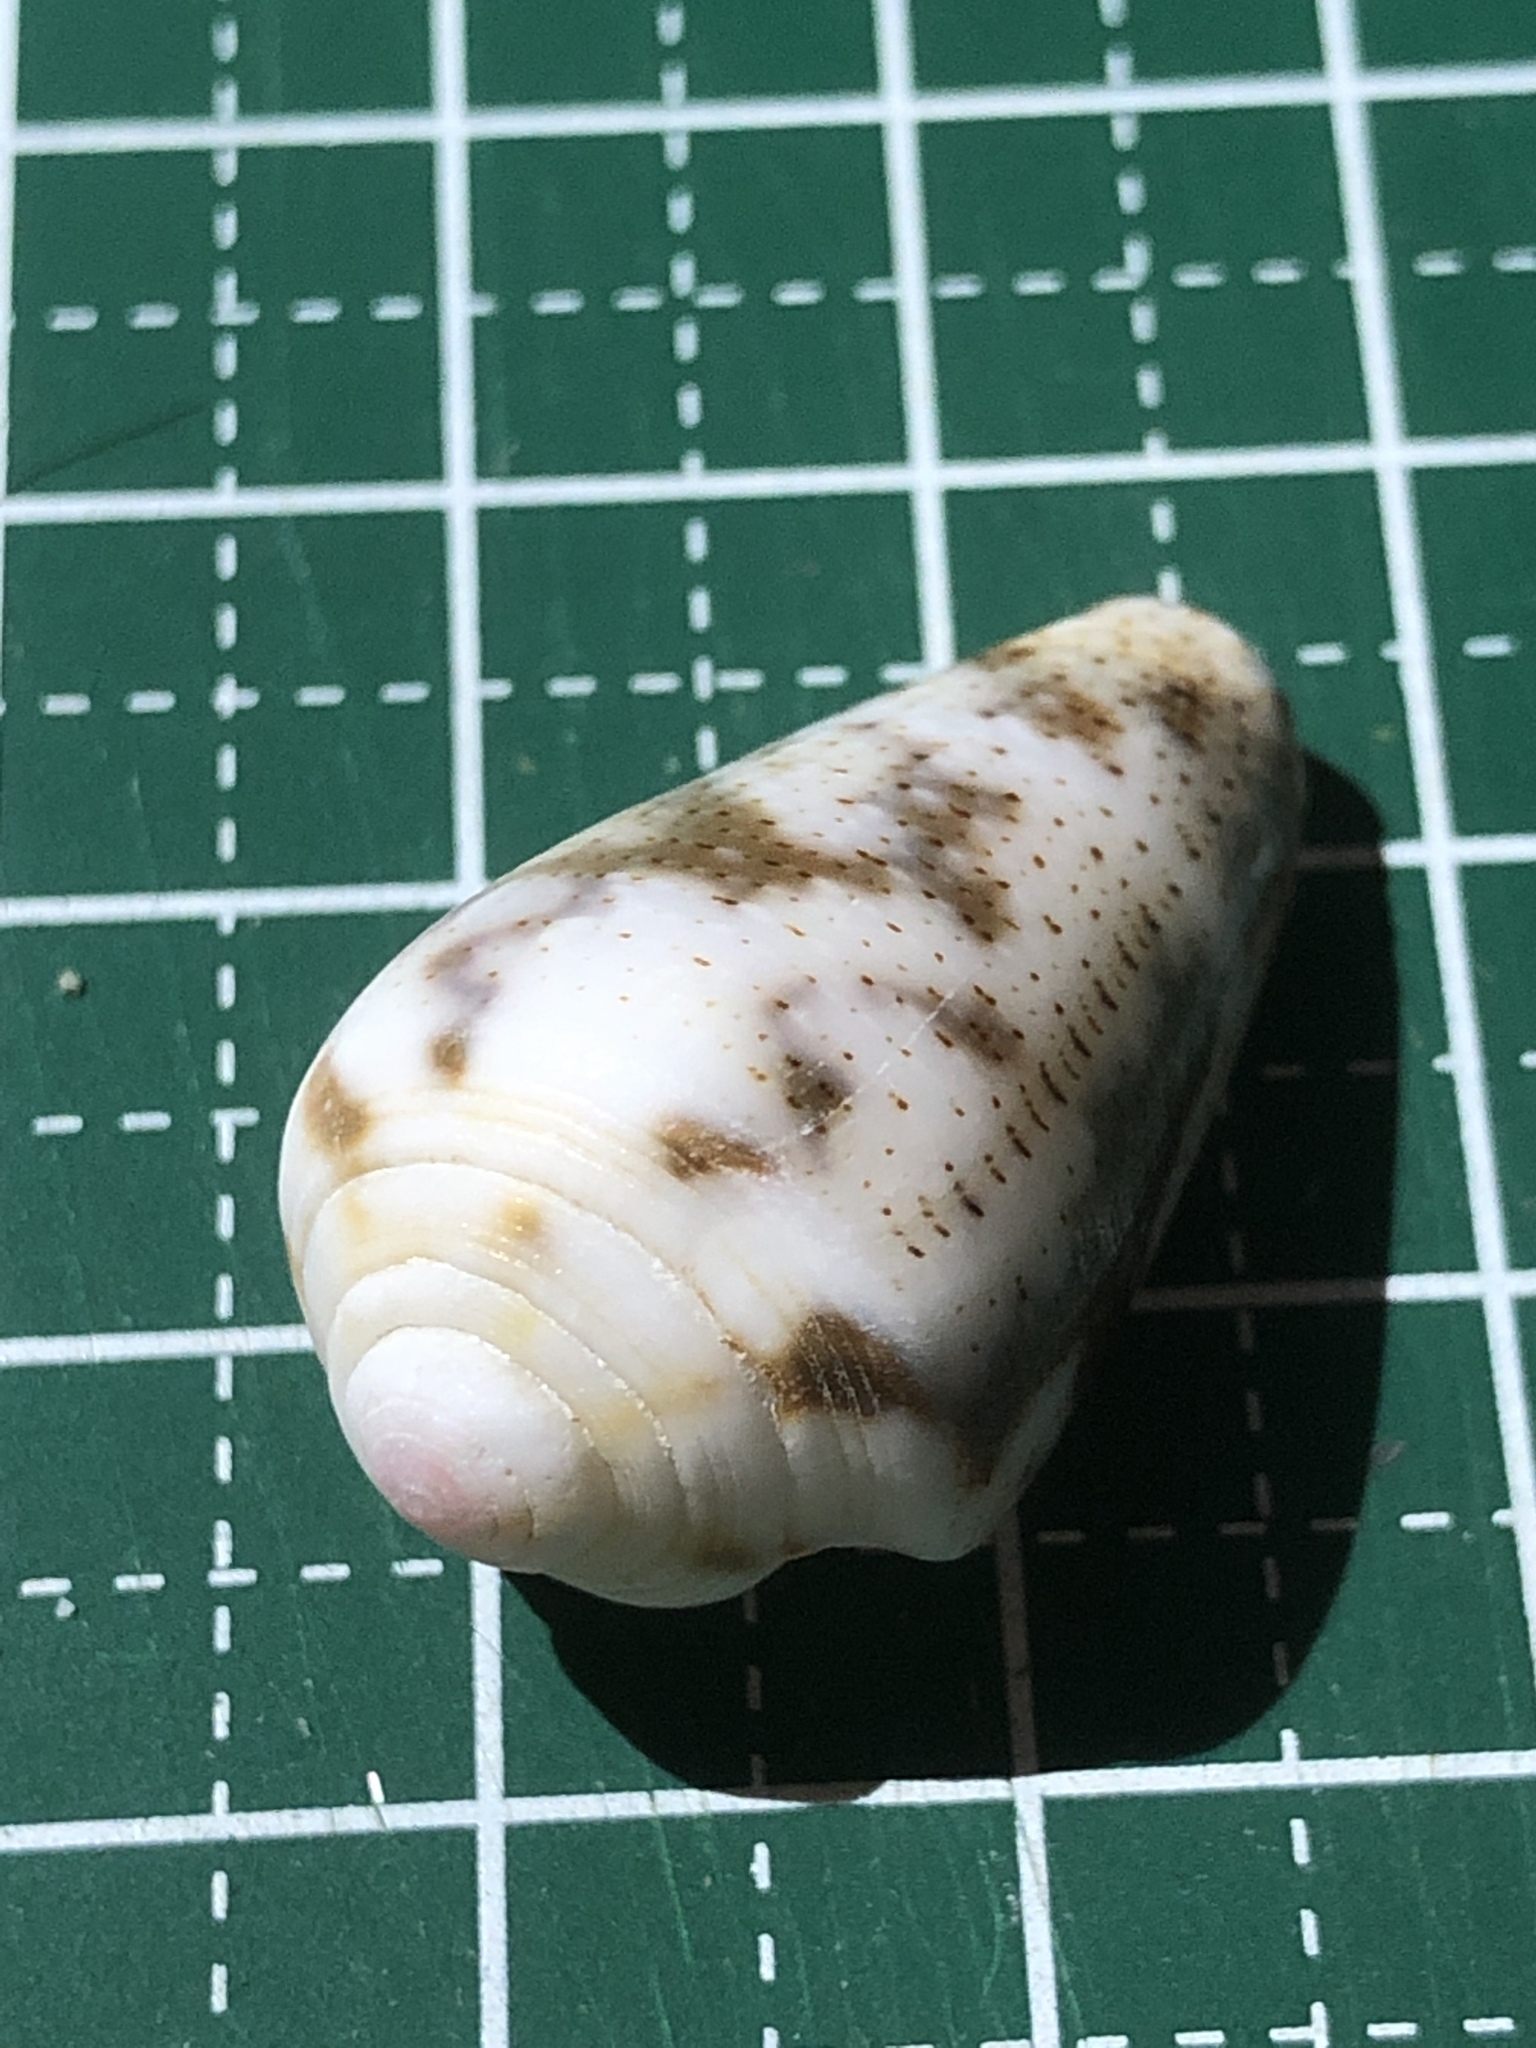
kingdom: Animalia
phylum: Mollusca
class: Gastropoda
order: Neogastropoda
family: Conidae
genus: Conus
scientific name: Conus striolatus
